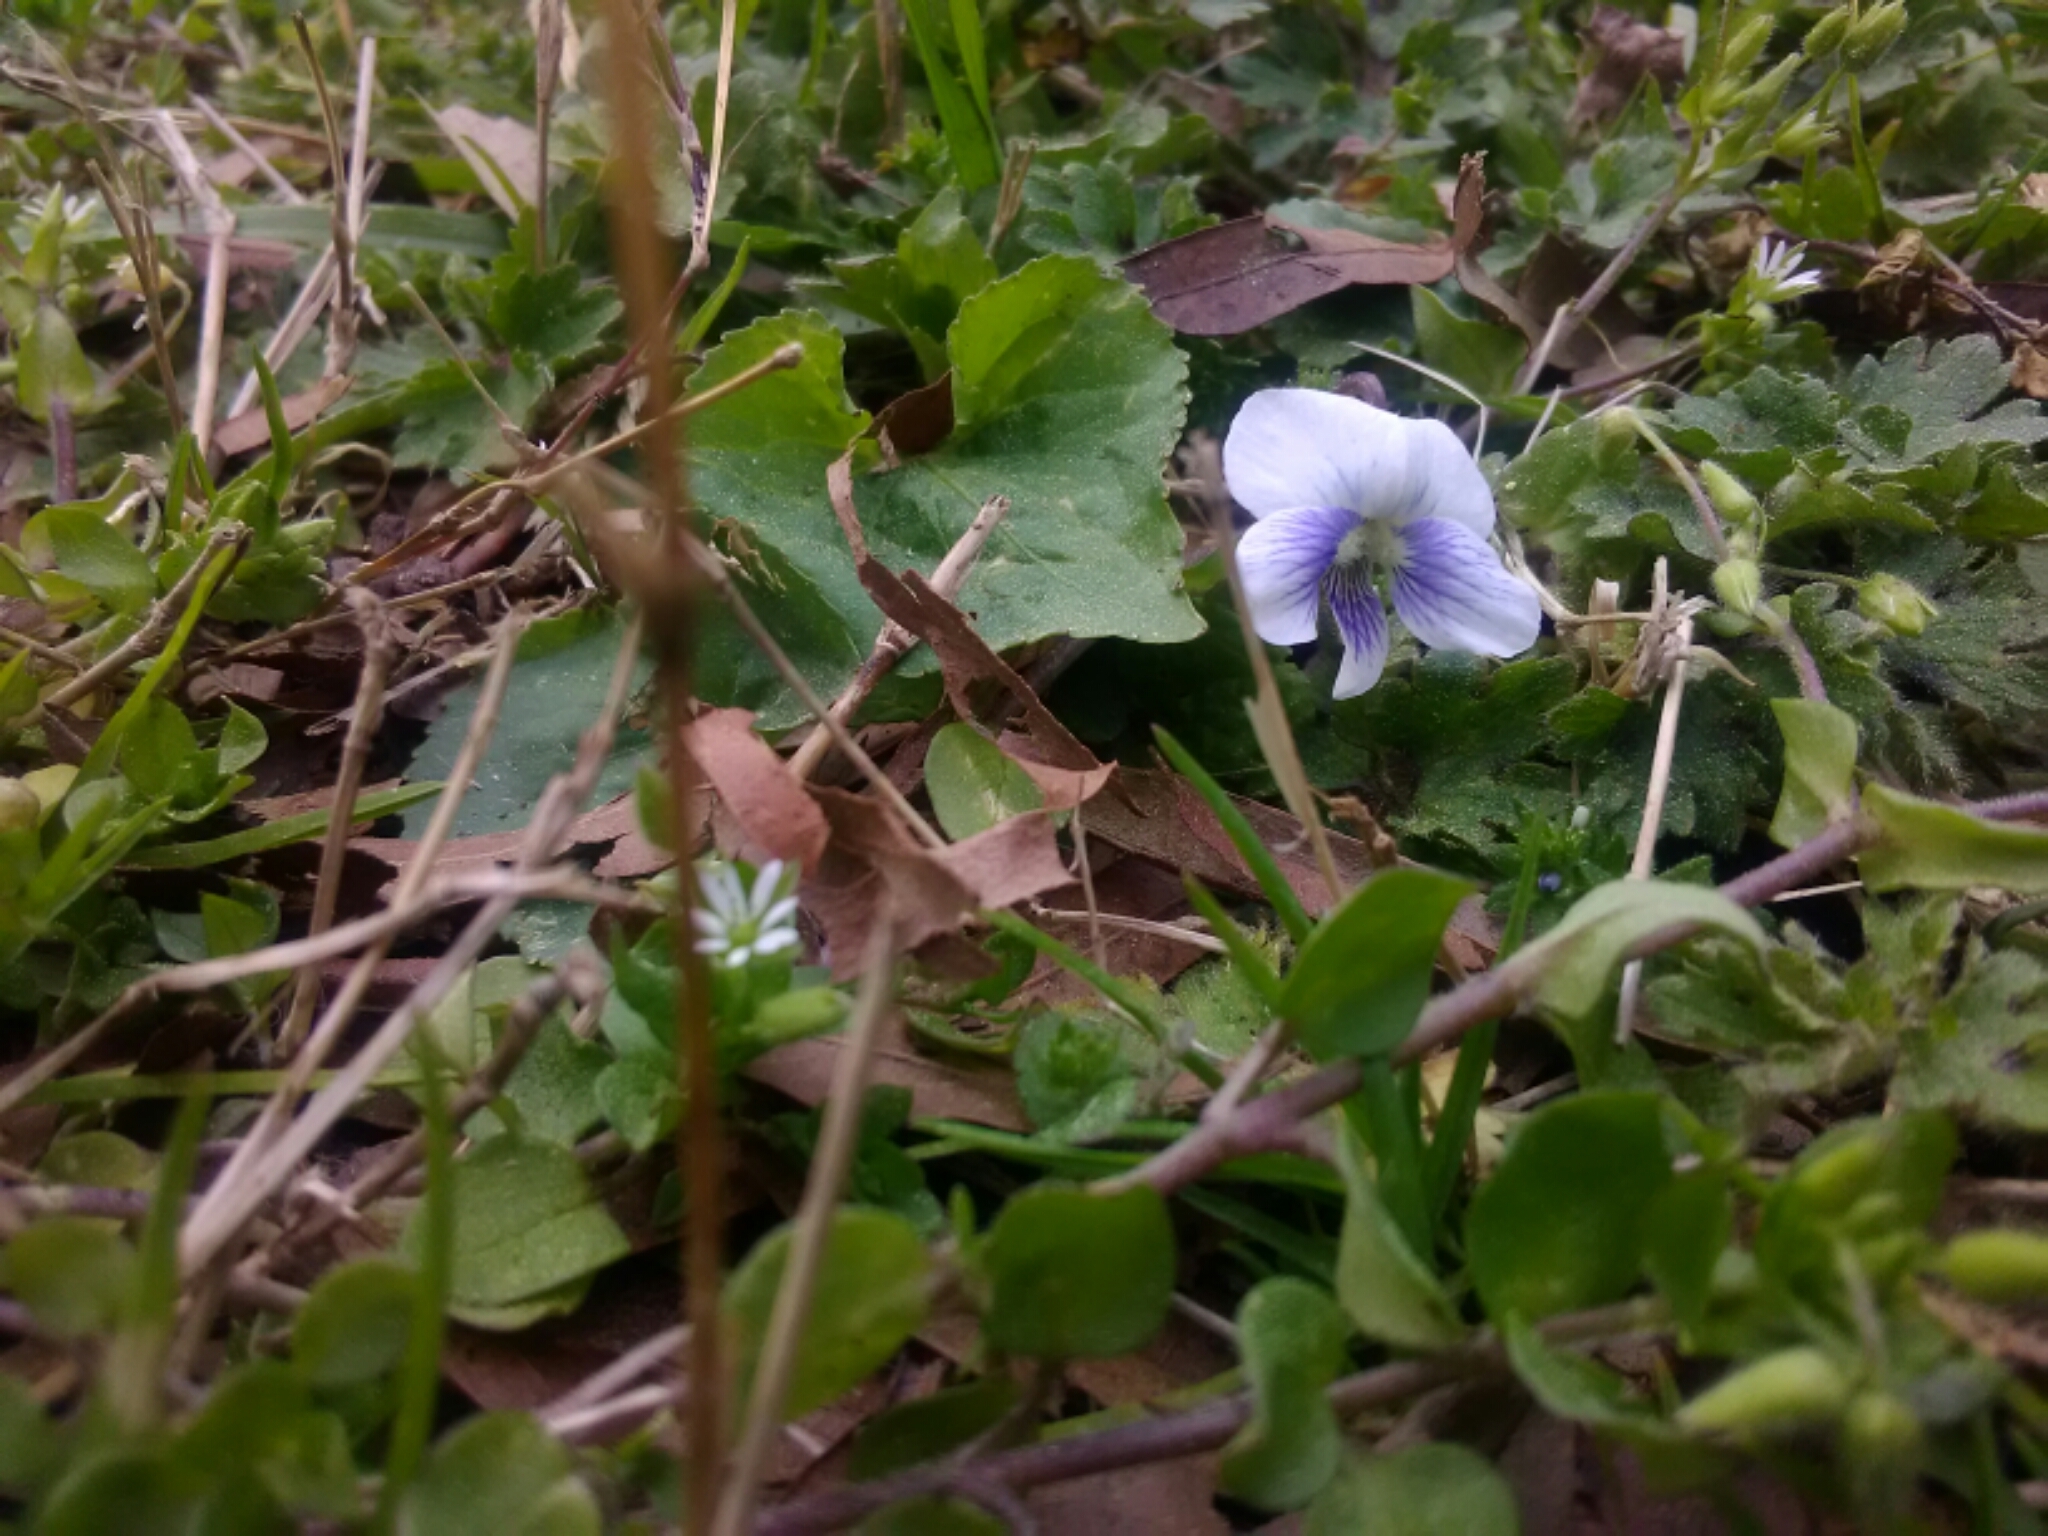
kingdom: Plantae
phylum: Tracheophyta
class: Magnoliopsida
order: Malpighiales
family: Violaceae
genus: Viola
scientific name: Viola sororia
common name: Dooryard violet
